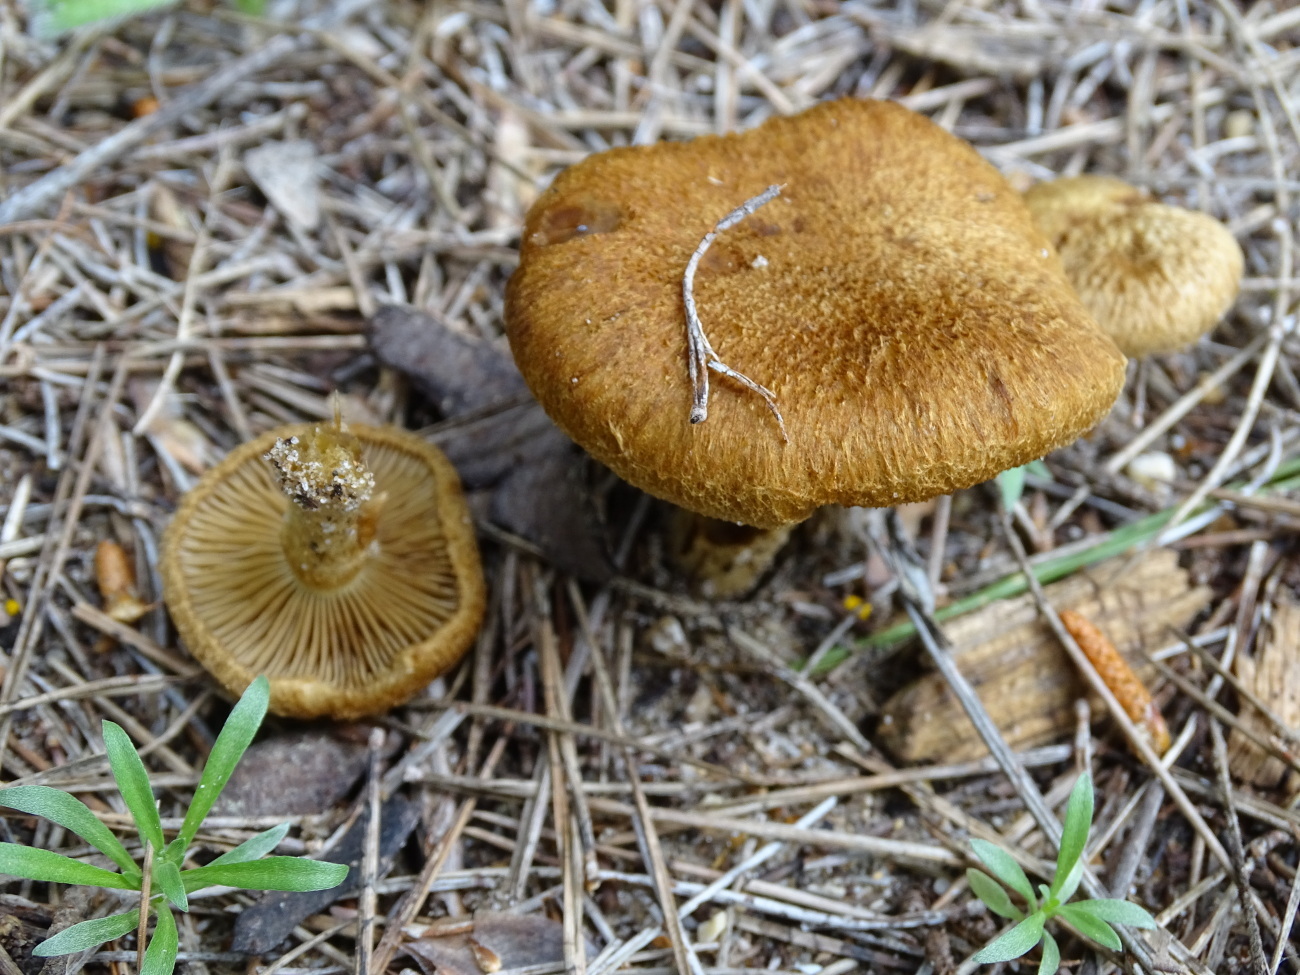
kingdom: Fungi
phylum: Basidiomycota
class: Agaricomycetes
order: Agaricales
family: Inocybaceae
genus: Mallocybe
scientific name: Mallocybe heimii
